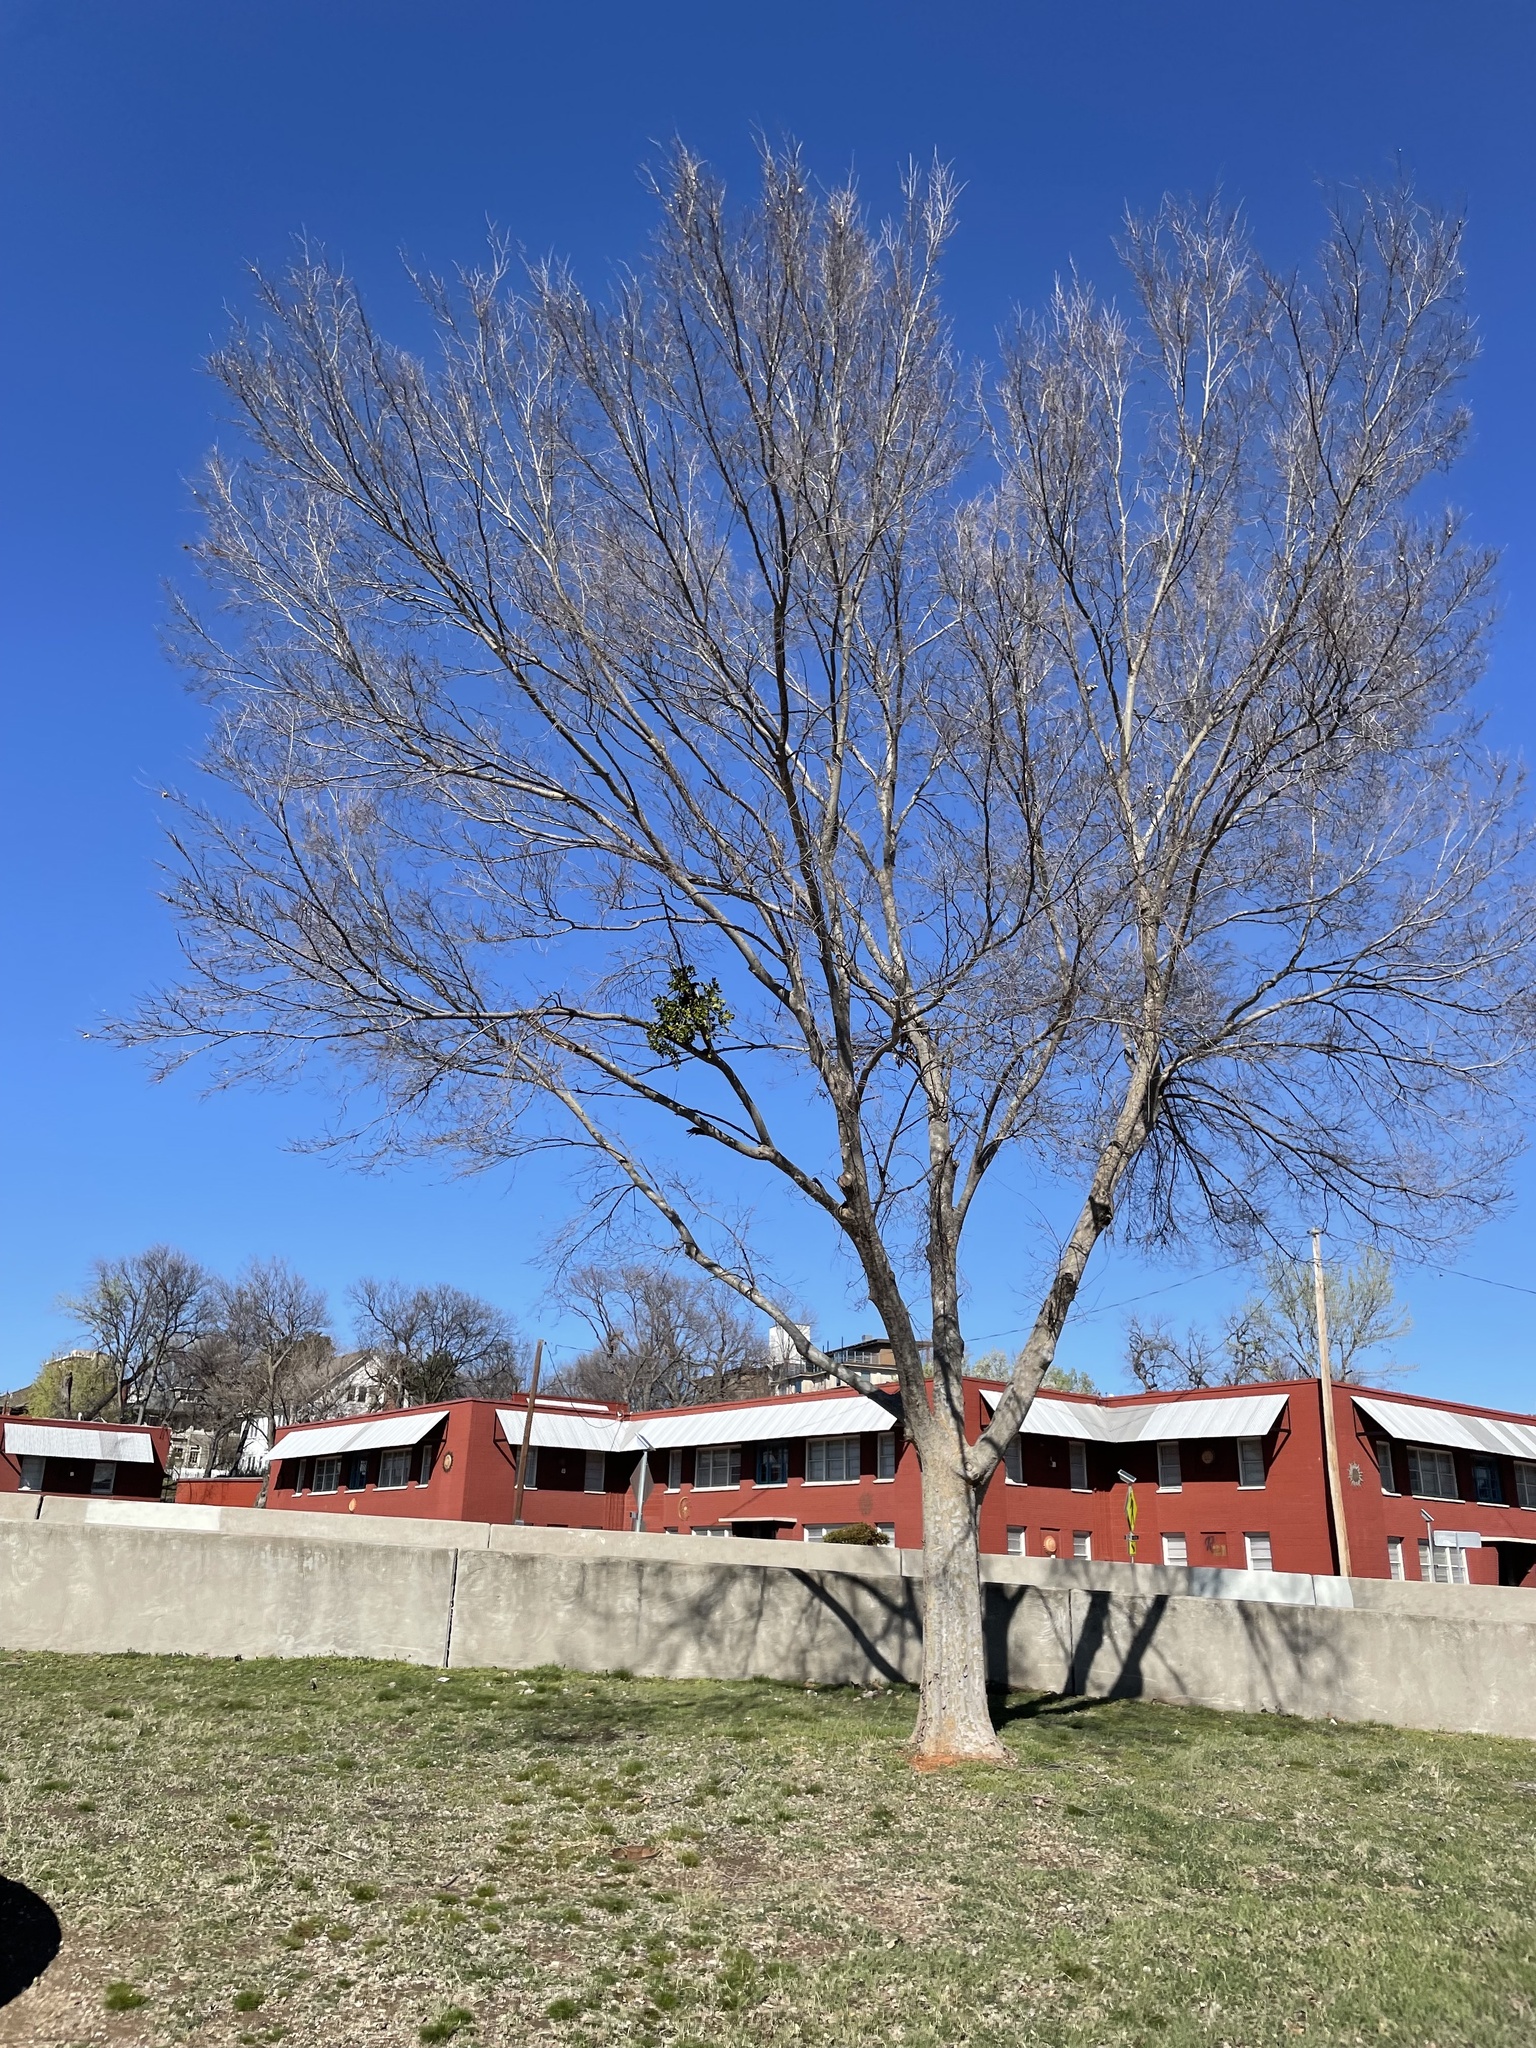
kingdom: Plantae
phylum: Tracheophyta
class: Magnoliopsida
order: Santalales
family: Viscaceae
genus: Phoradendron
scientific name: Phoradendron leucarpum
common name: Pacific mistletoe
